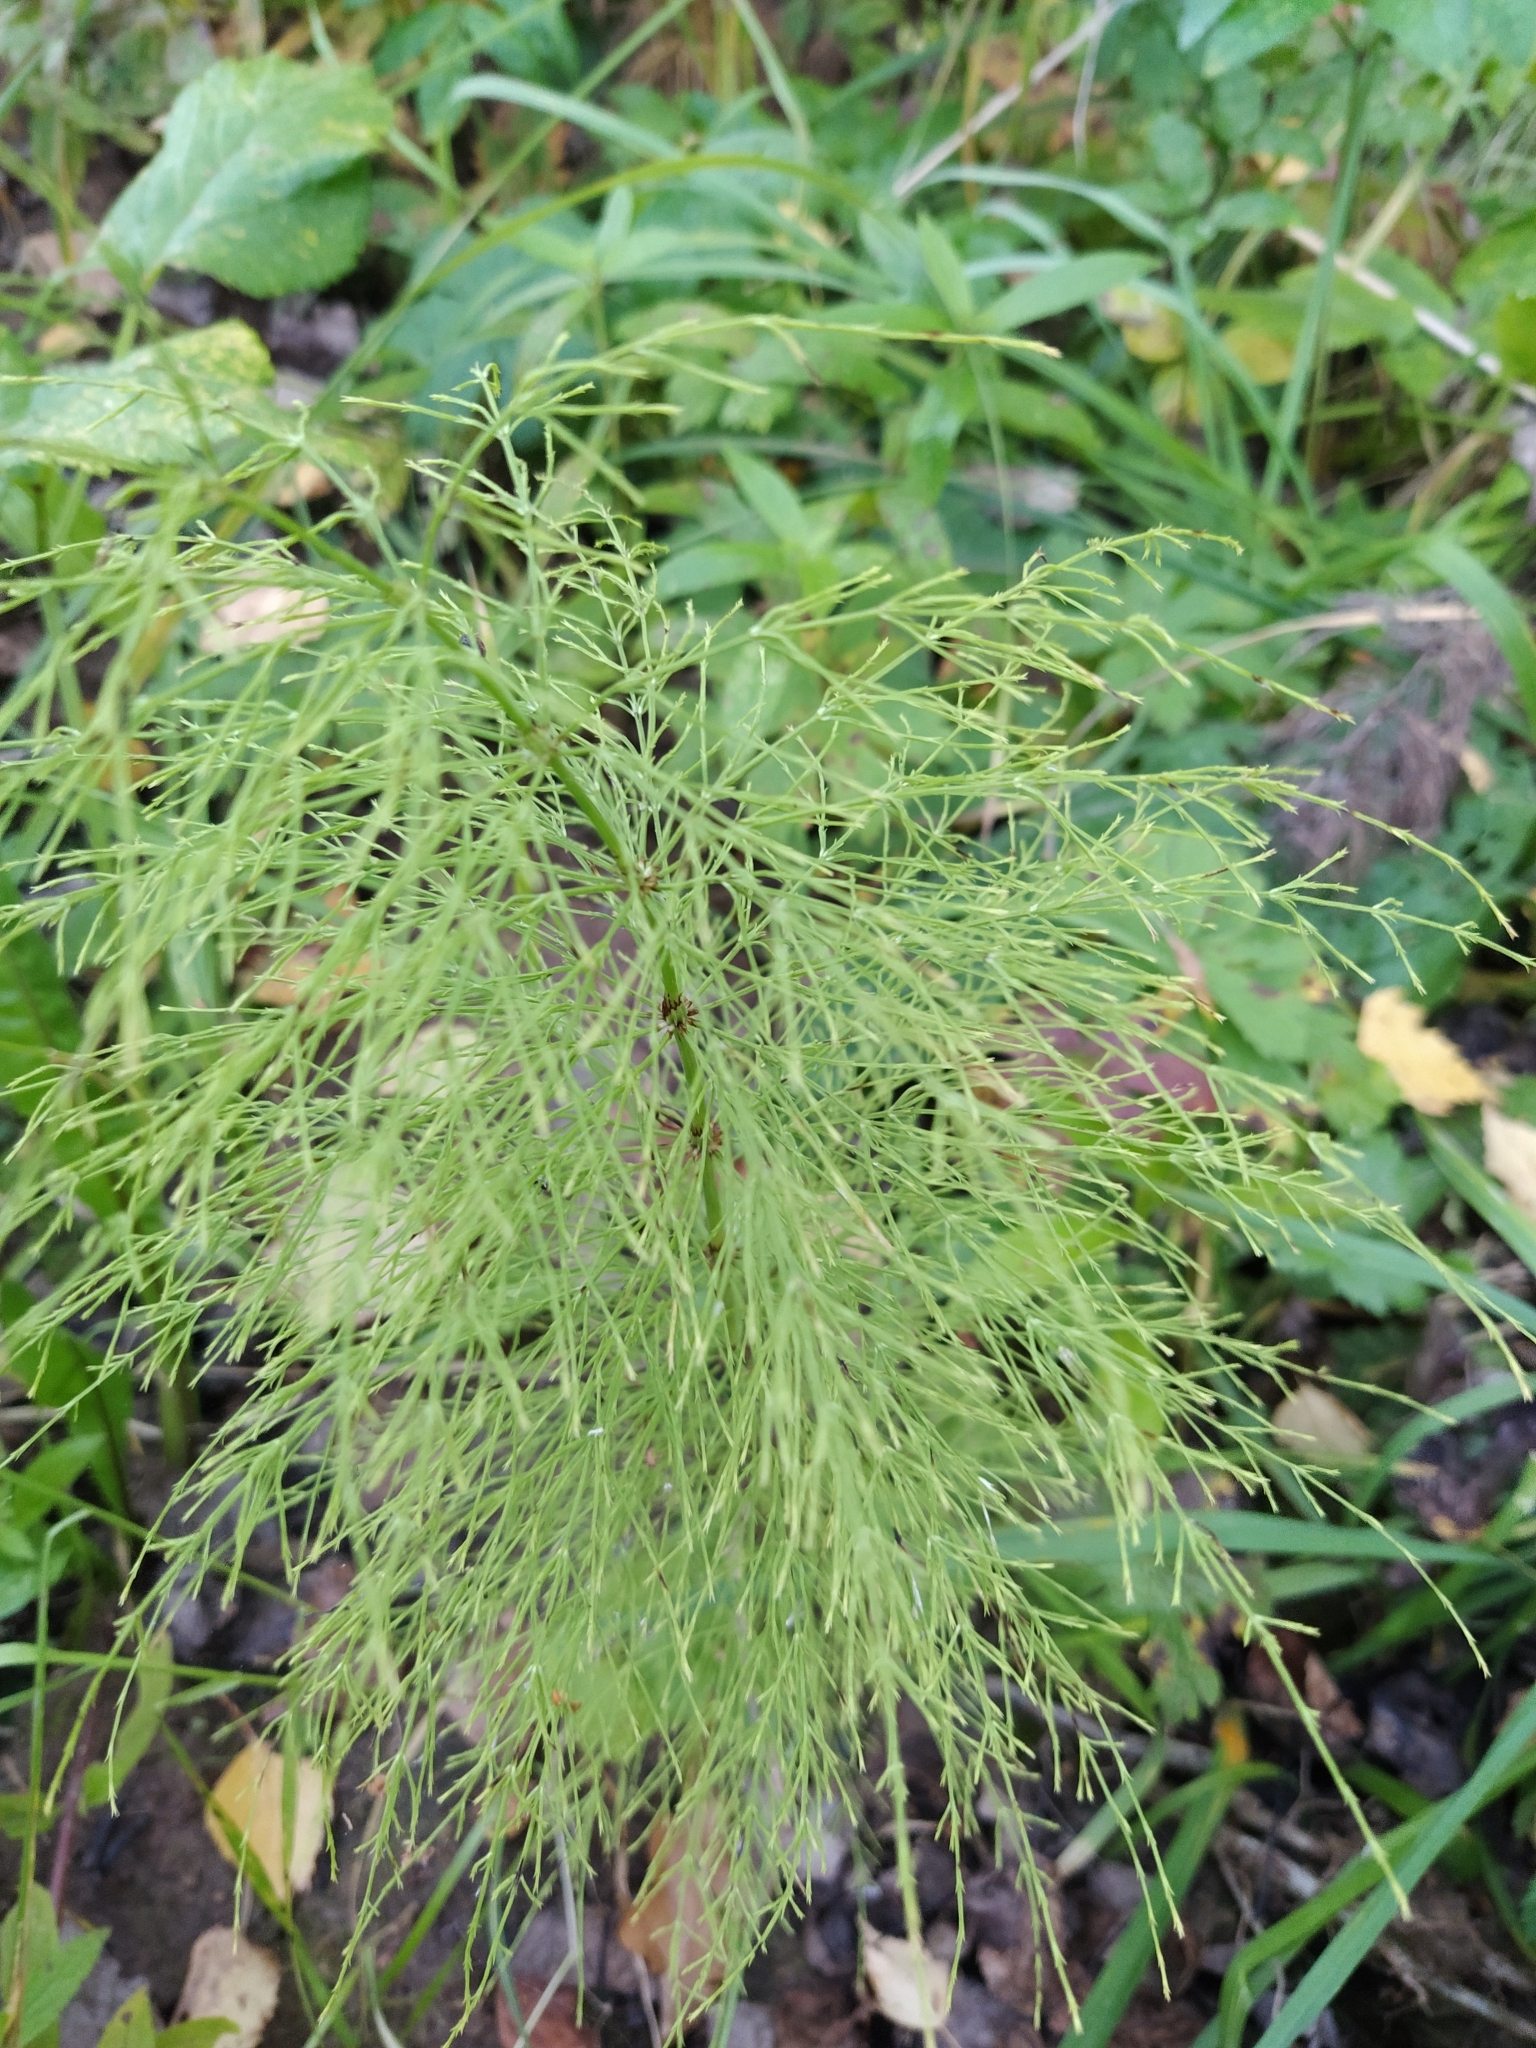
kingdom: Plantae
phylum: Tracheophyta
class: Polypodiopsida
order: Equisetales
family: Equisetaceae
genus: Equisetum
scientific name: Equisetum sylvaticum
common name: Wood horsetail
